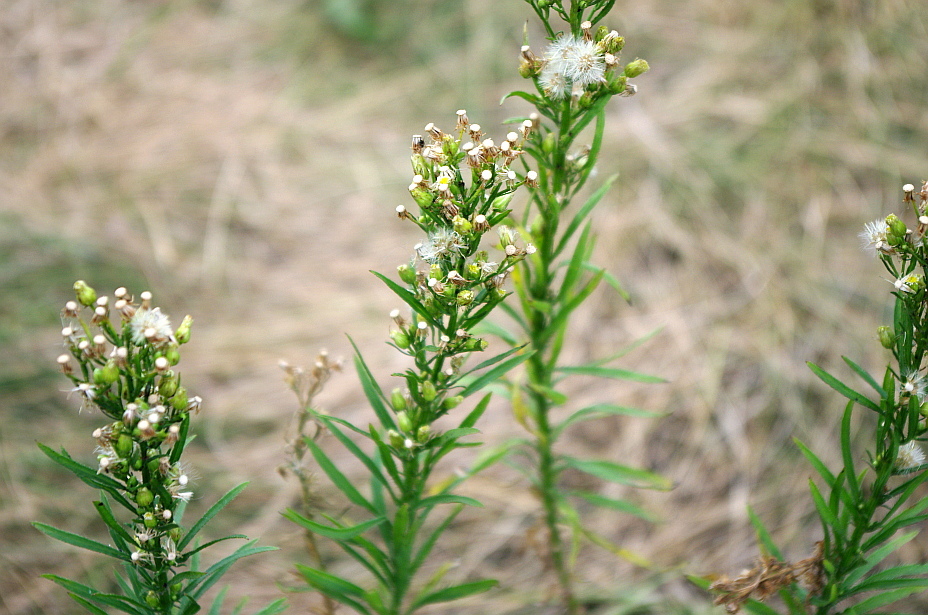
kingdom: Plantae
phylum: Tracheophyta
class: Magnoliopsida
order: Asterales
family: Asteraceae
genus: Erigeron
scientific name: Erigeron canadensis
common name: Canadian fleabane
